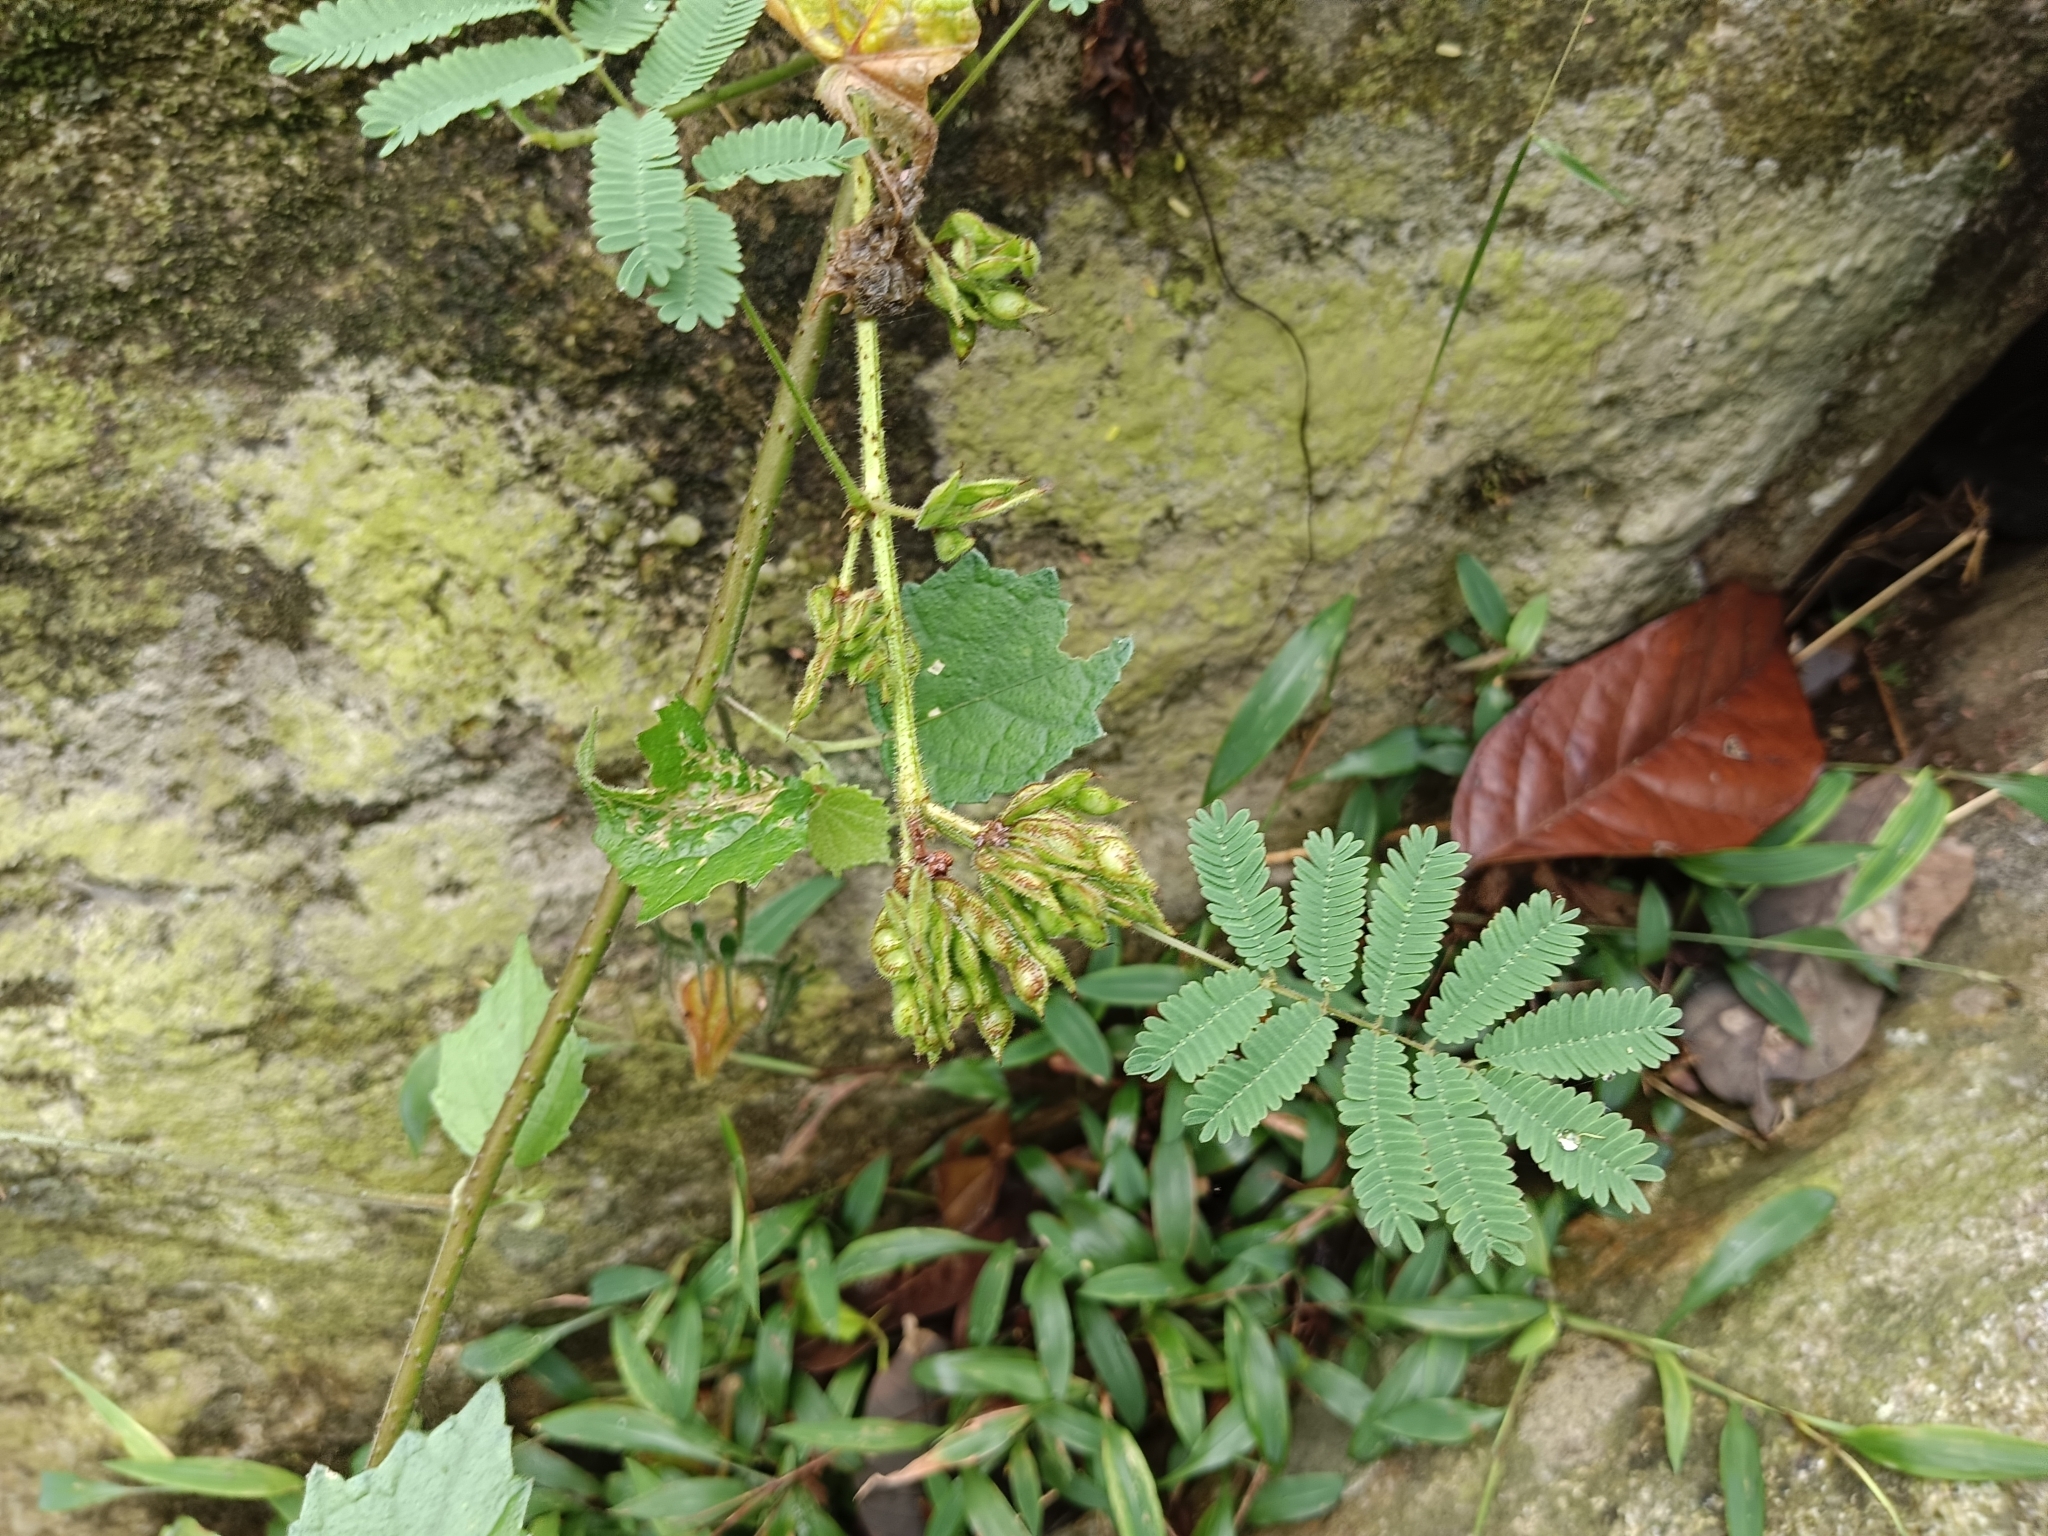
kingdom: Plantae
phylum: Tracheophyta
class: Magnoliopsida
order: Fabales
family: Fabaceae
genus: Mimosa
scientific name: Mimosa diplotricha
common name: Giant sensitive-plant
